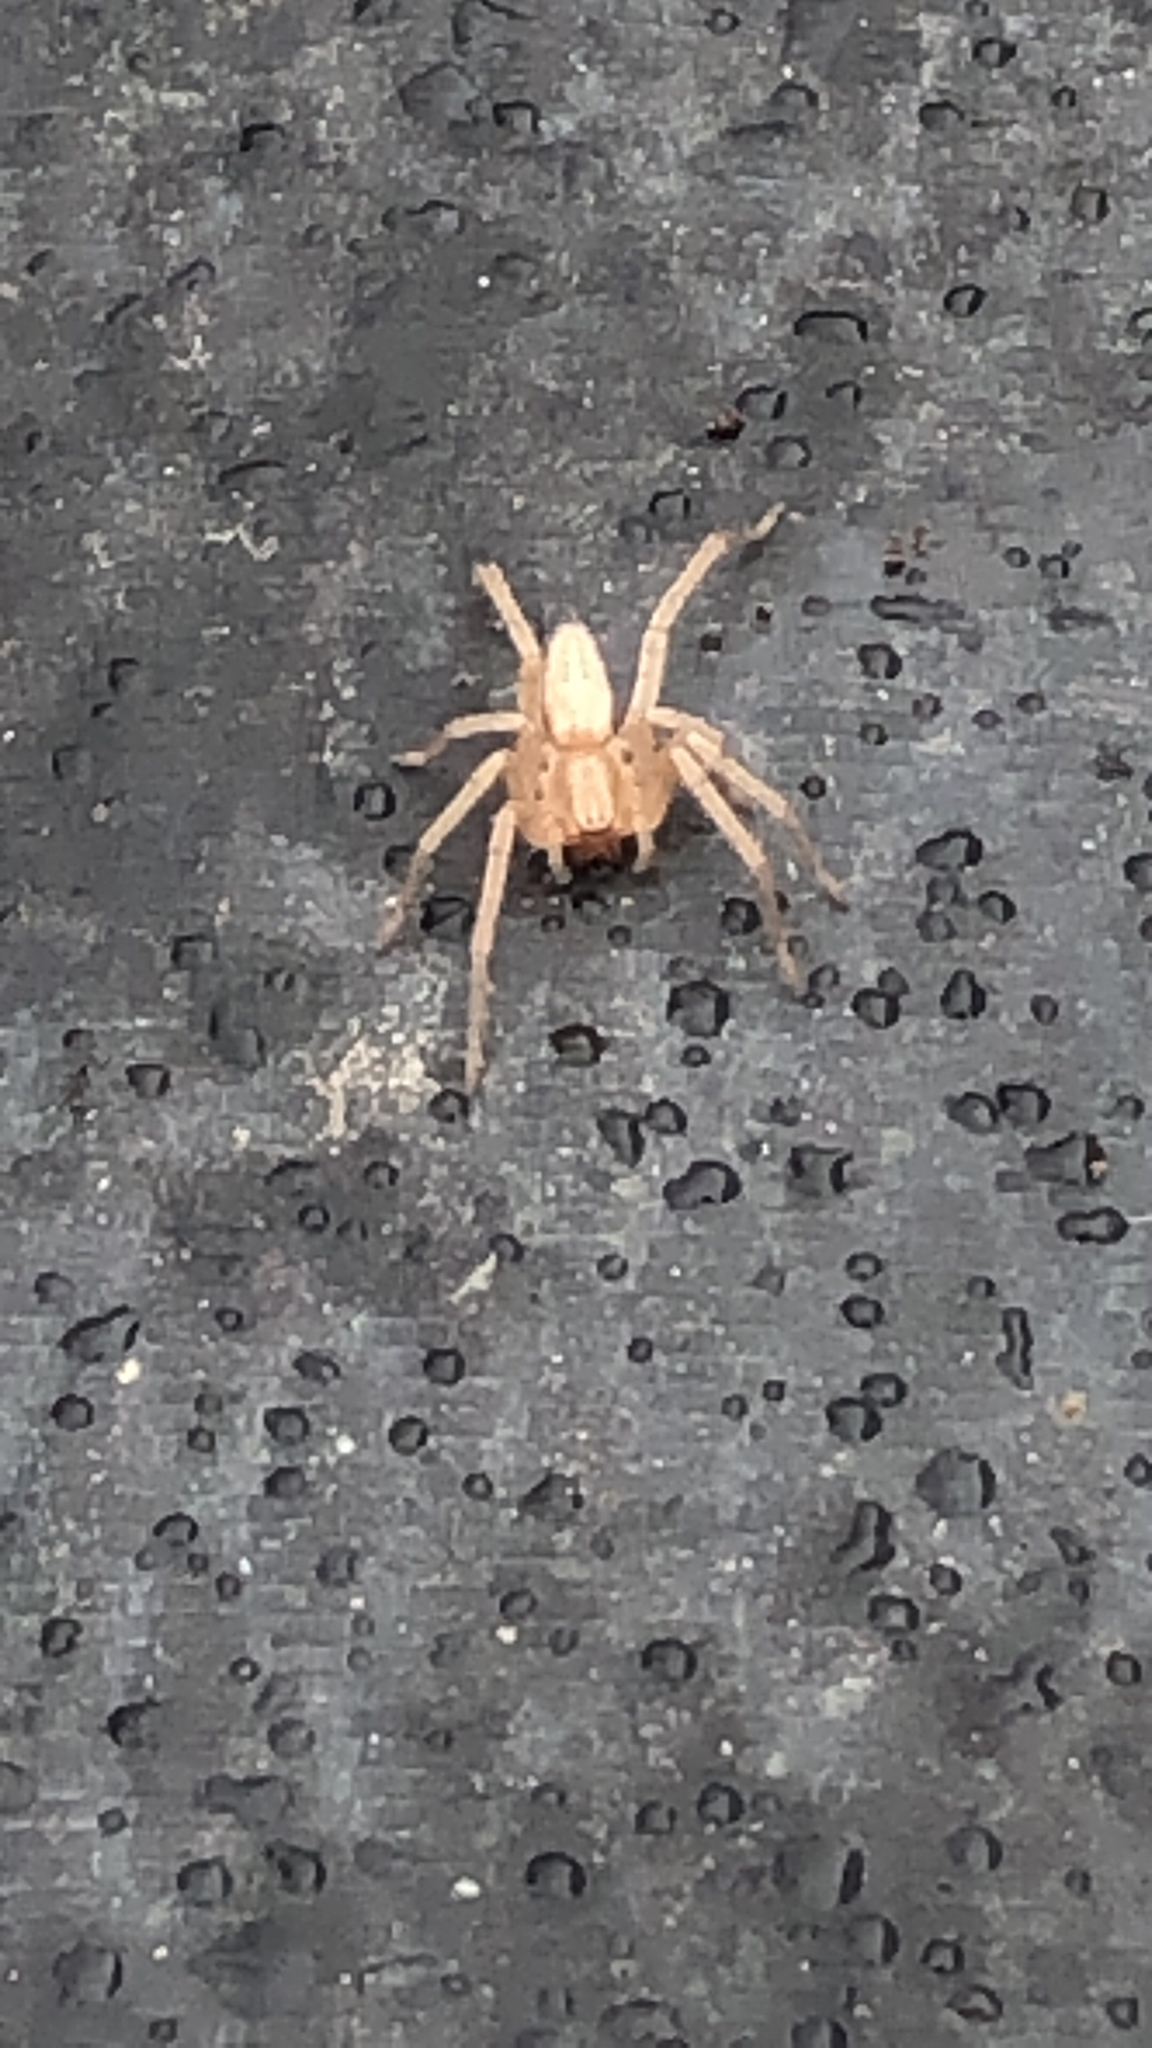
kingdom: Animalia
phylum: Arthropoda
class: Arachnida
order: Araneae
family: Anyphaenidae
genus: Hibana
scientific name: Hibana gracilis
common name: Garden ghost spider
